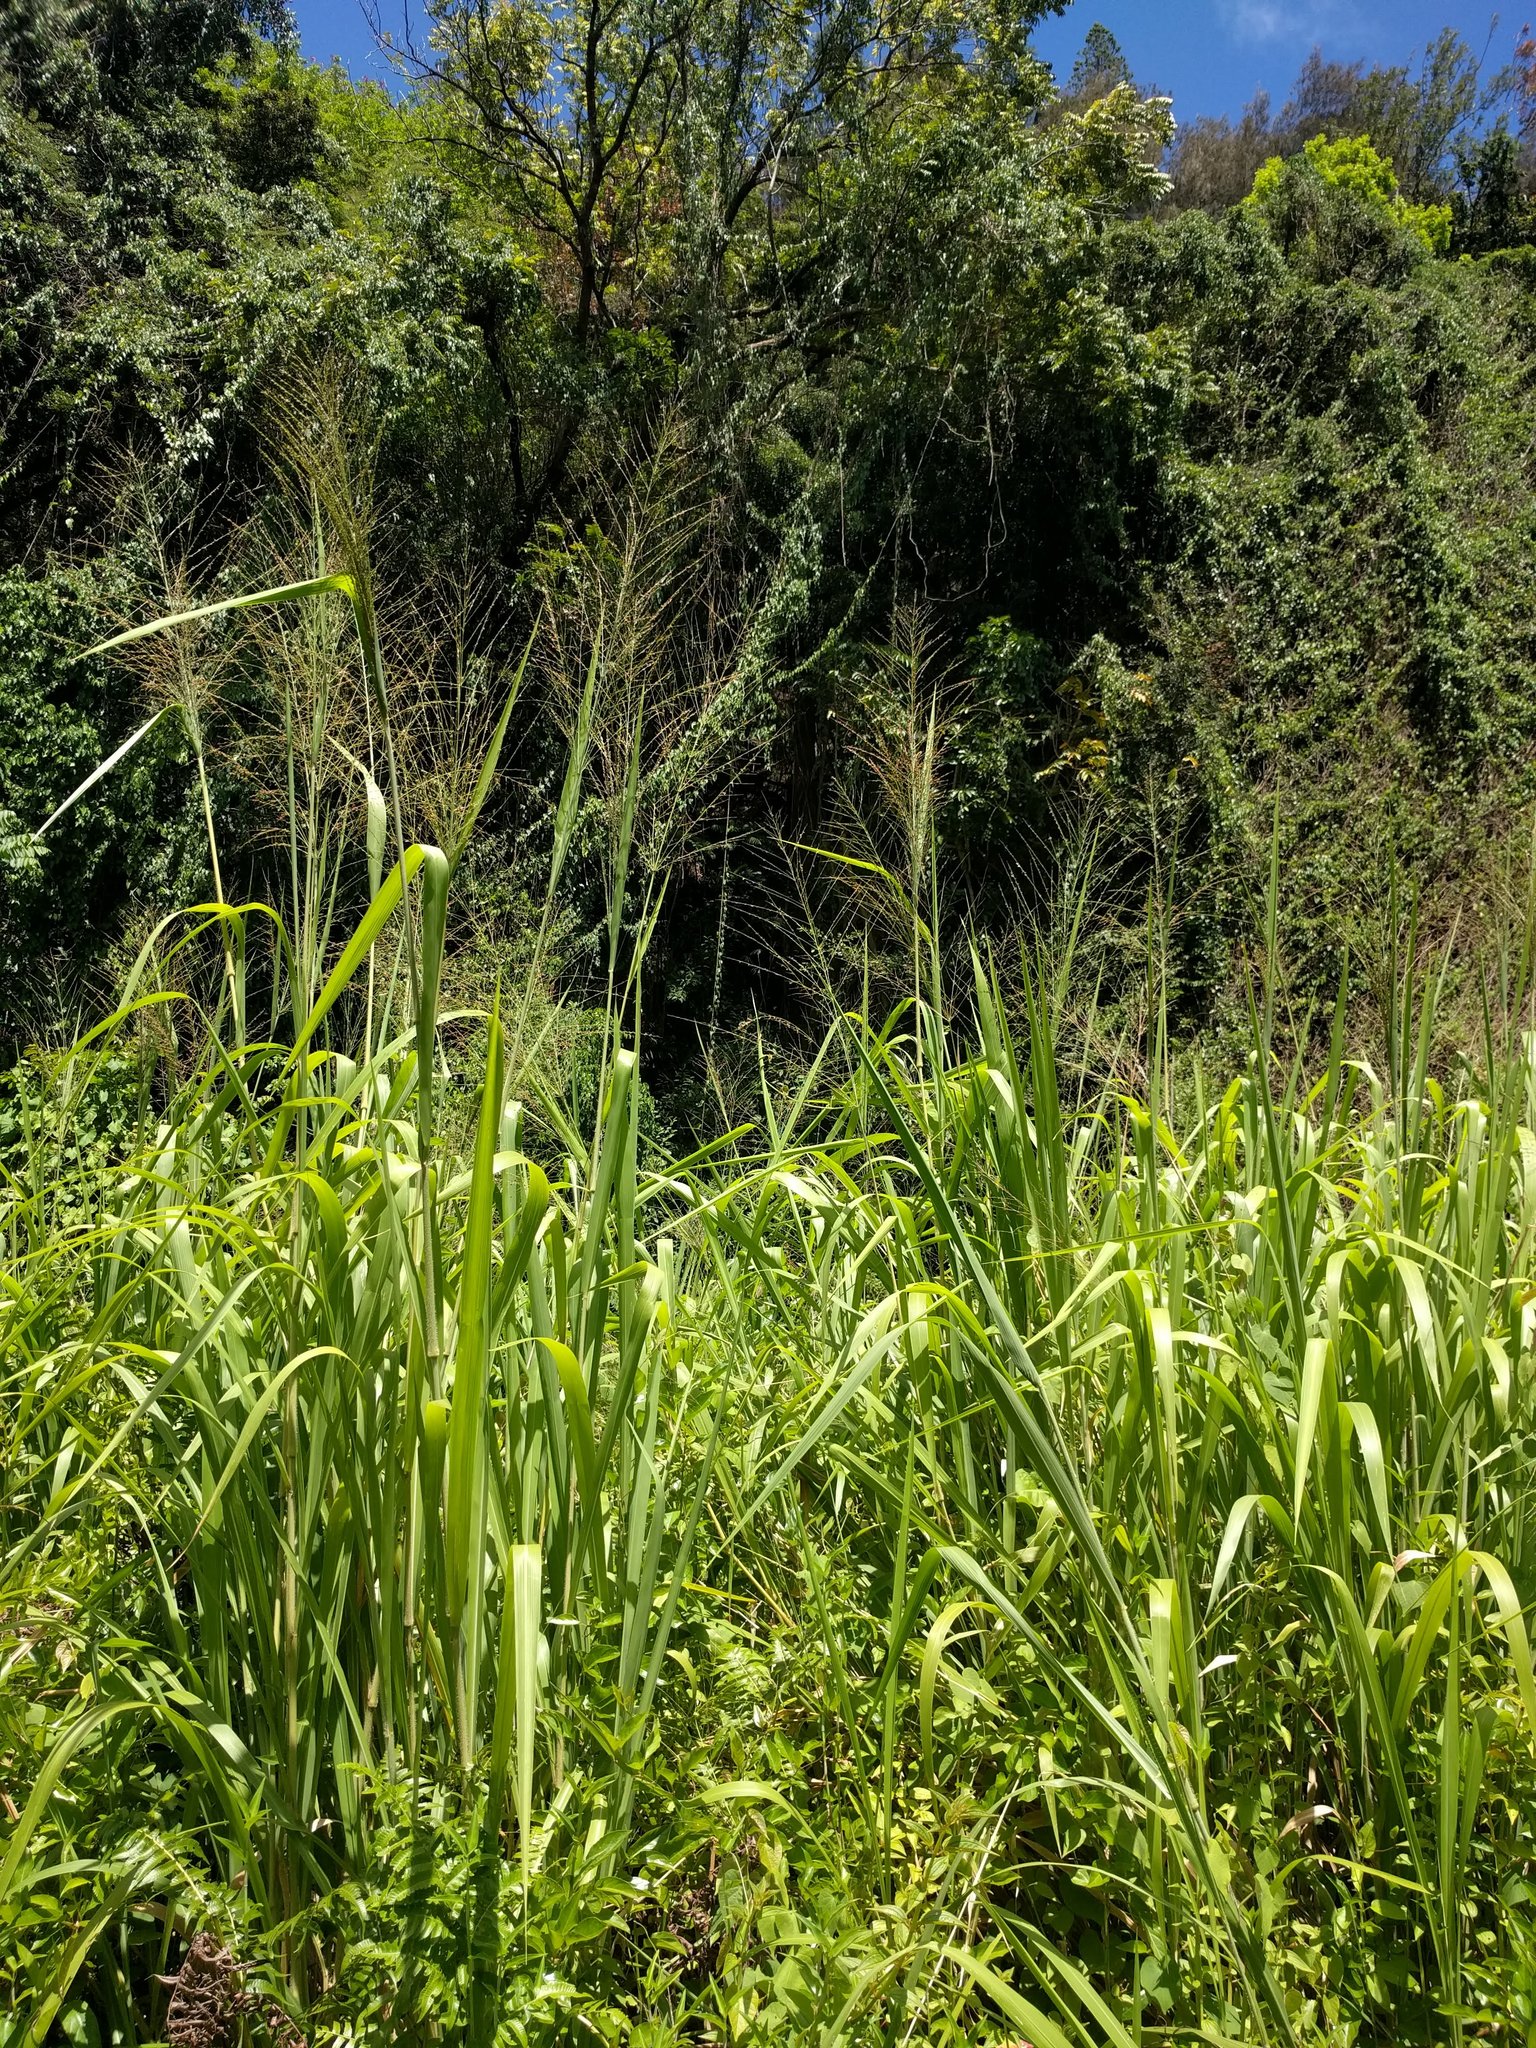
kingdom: Plantae
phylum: Tracheophyta
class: Liliopsida
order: Poales
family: Poaceae
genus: Megathyrsus
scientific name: Megathyrsus maximus
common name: Guineagrass
